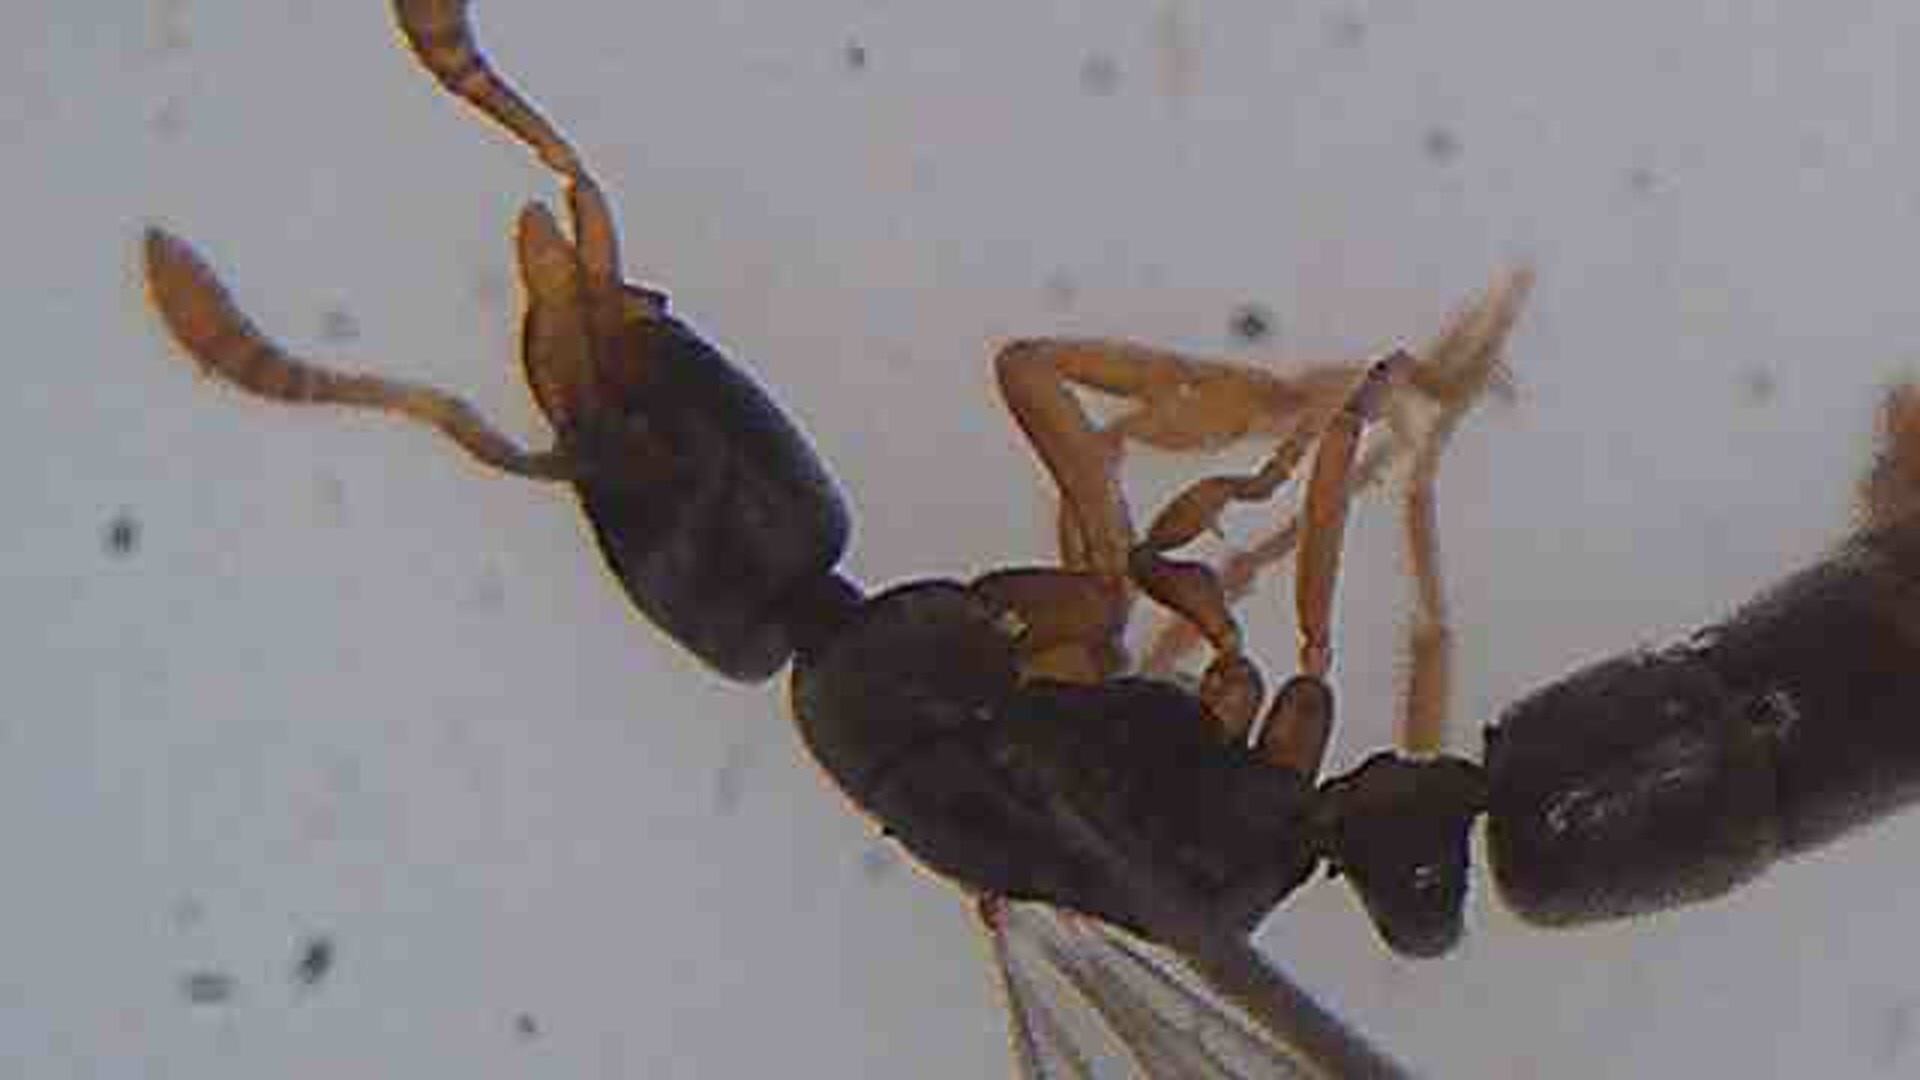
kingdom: Animalia
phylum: Arthropoda
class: Insecta
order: Hymenoptera
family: Formicidae
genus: Ponera
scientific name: Ponera leae
